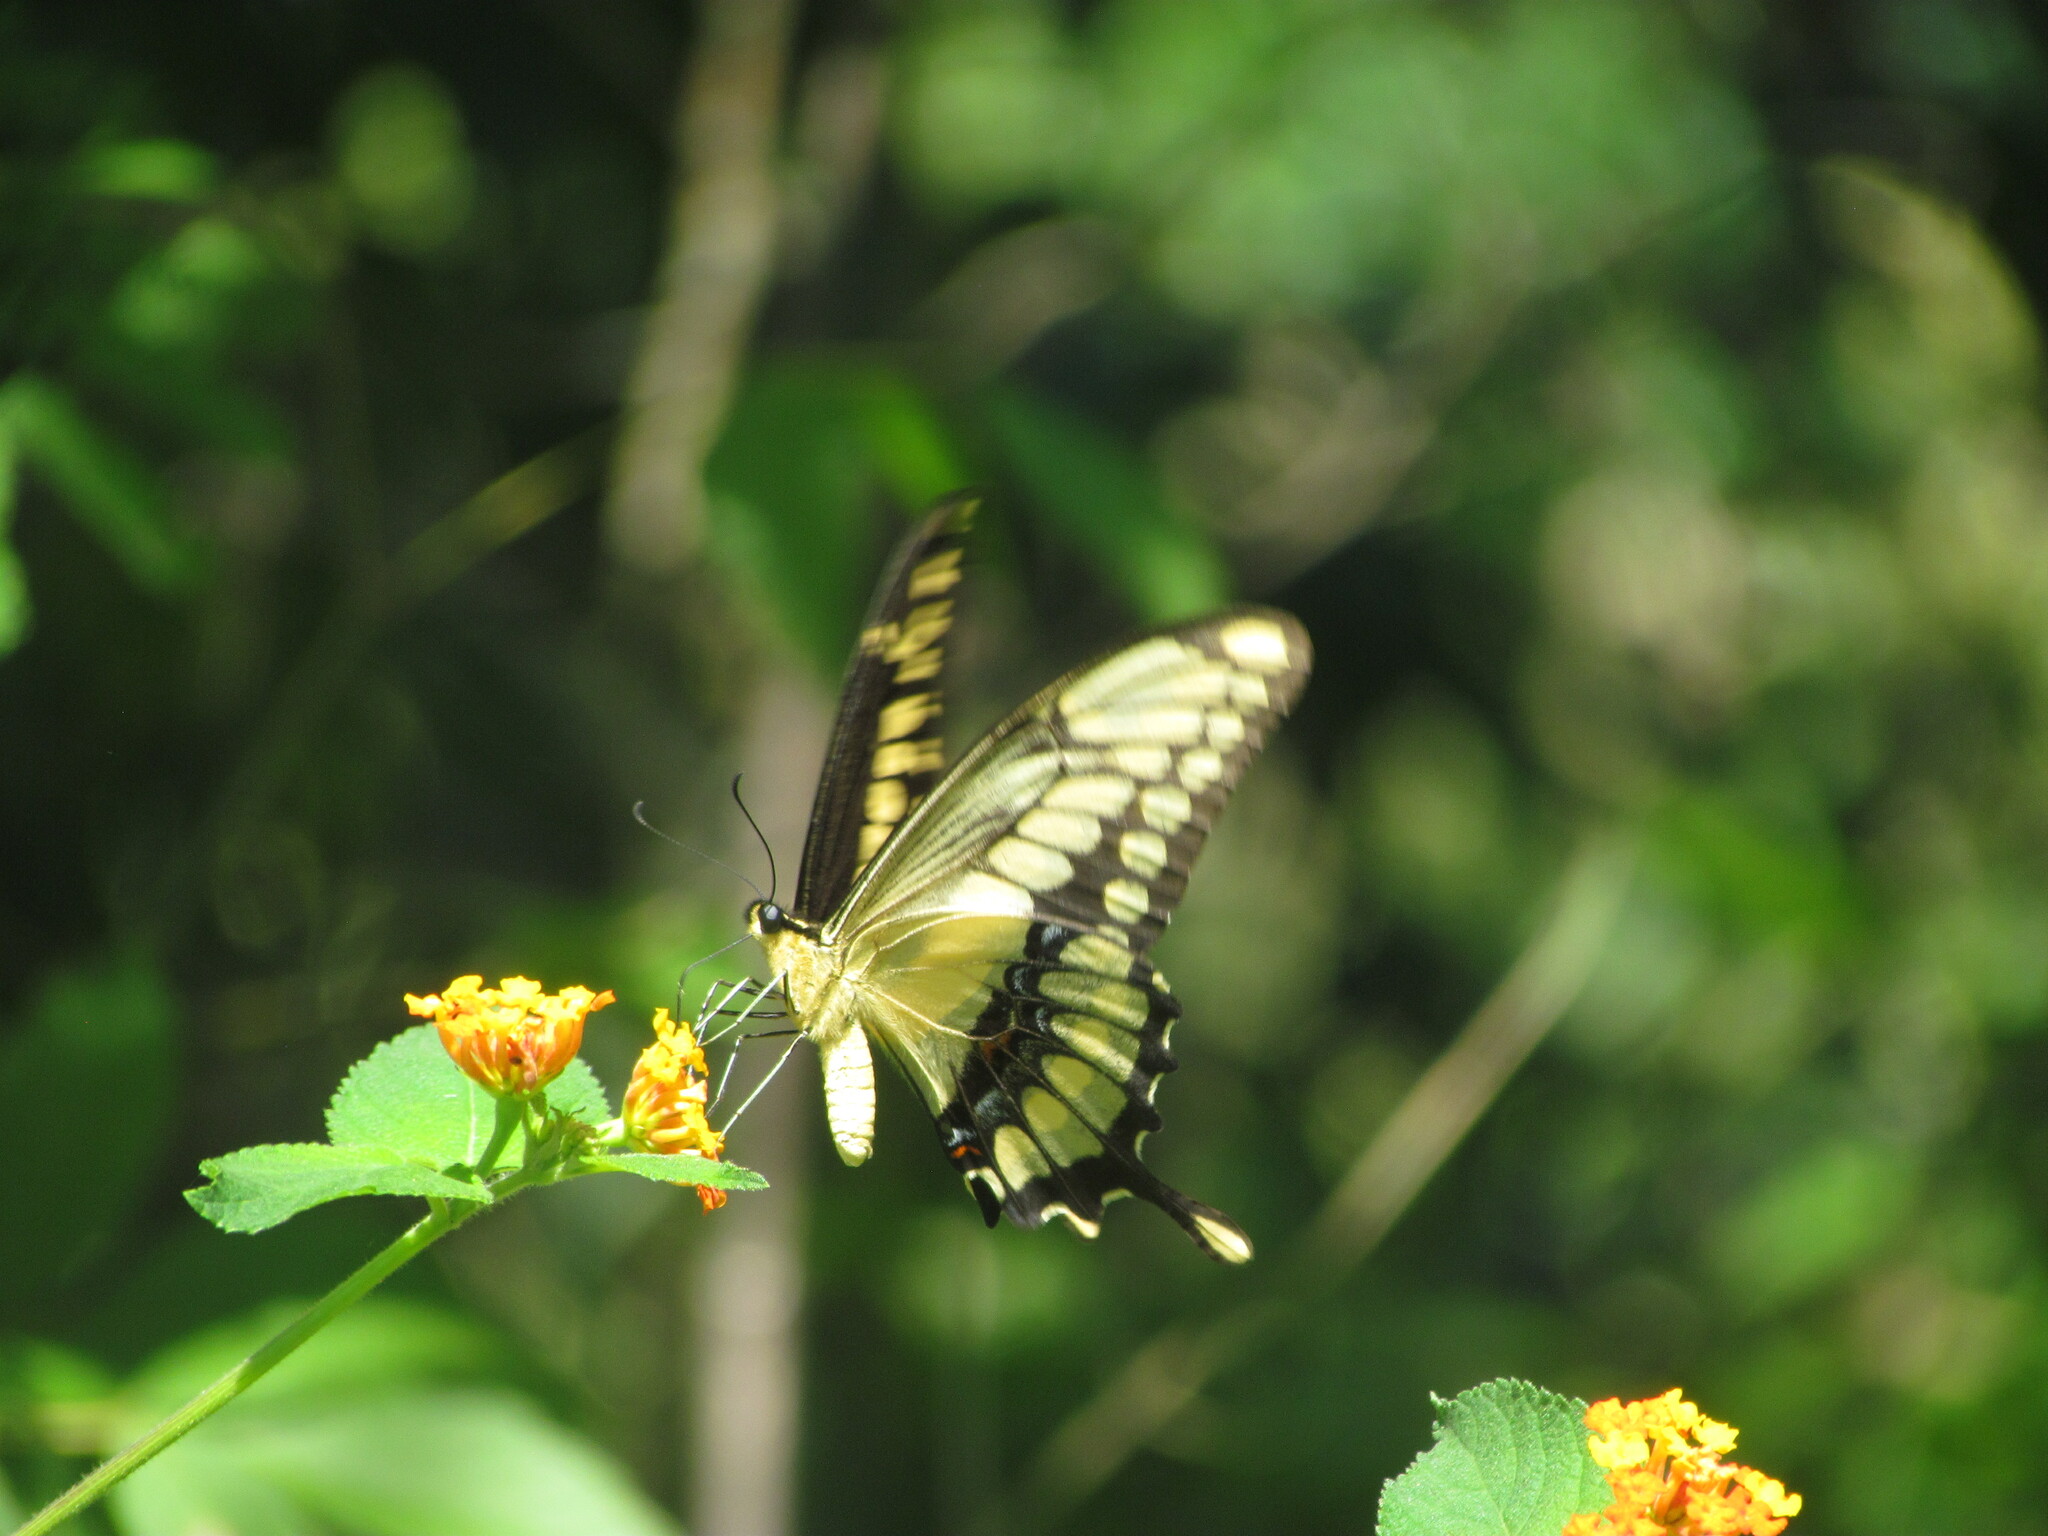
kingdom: Animalia
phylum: Arthropoda
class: Insecta
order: Lepidoptera
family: Papilionidae
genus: Papilio
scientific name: Papilio thoas
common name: King swallowtail
